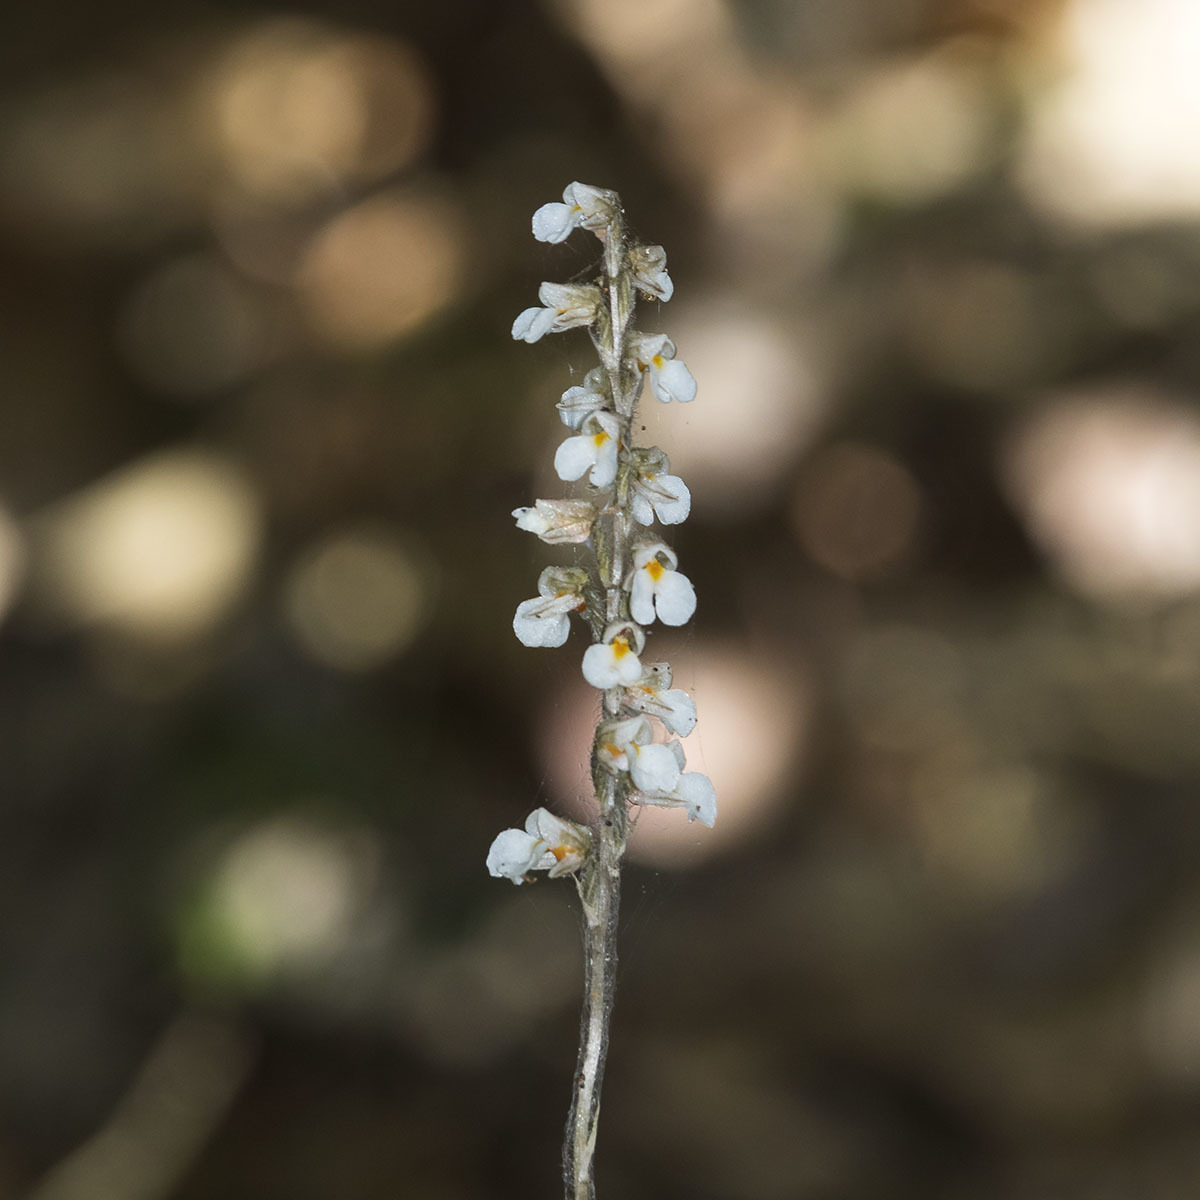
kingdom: Plantae
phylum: Tracheophyta
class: Liliopsida
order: Asparagales
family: Orchidaceae
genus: Zeuxine
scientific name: Zeuxine andamanica
